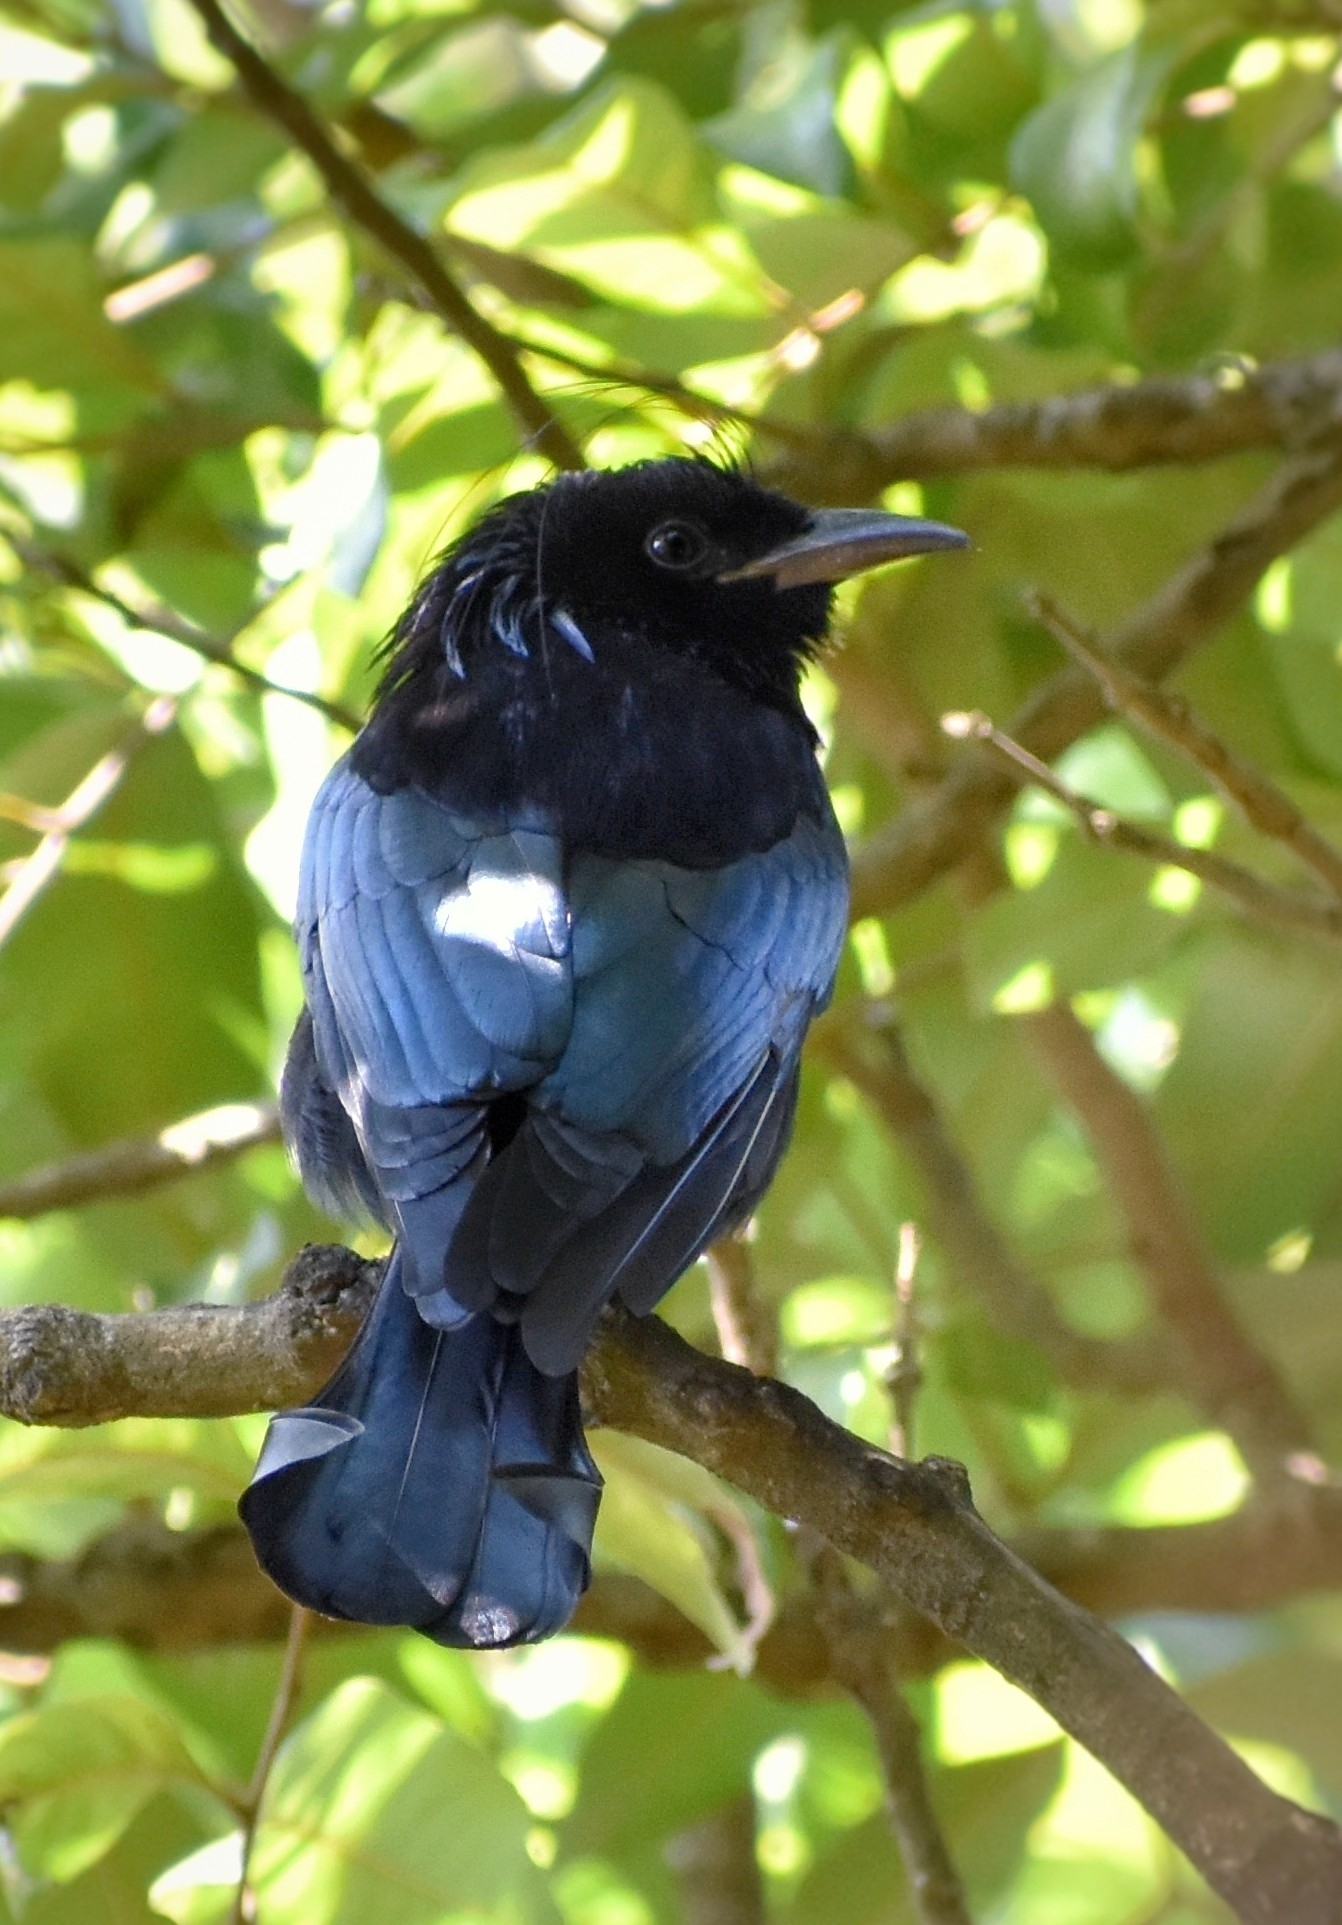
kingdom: Animalia
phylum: Chordata
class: Aves
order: Passeriformes
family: Dicruridae
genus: Dicrurus
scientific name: Dicrurus hottentottus
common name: Hair-crested drongo
